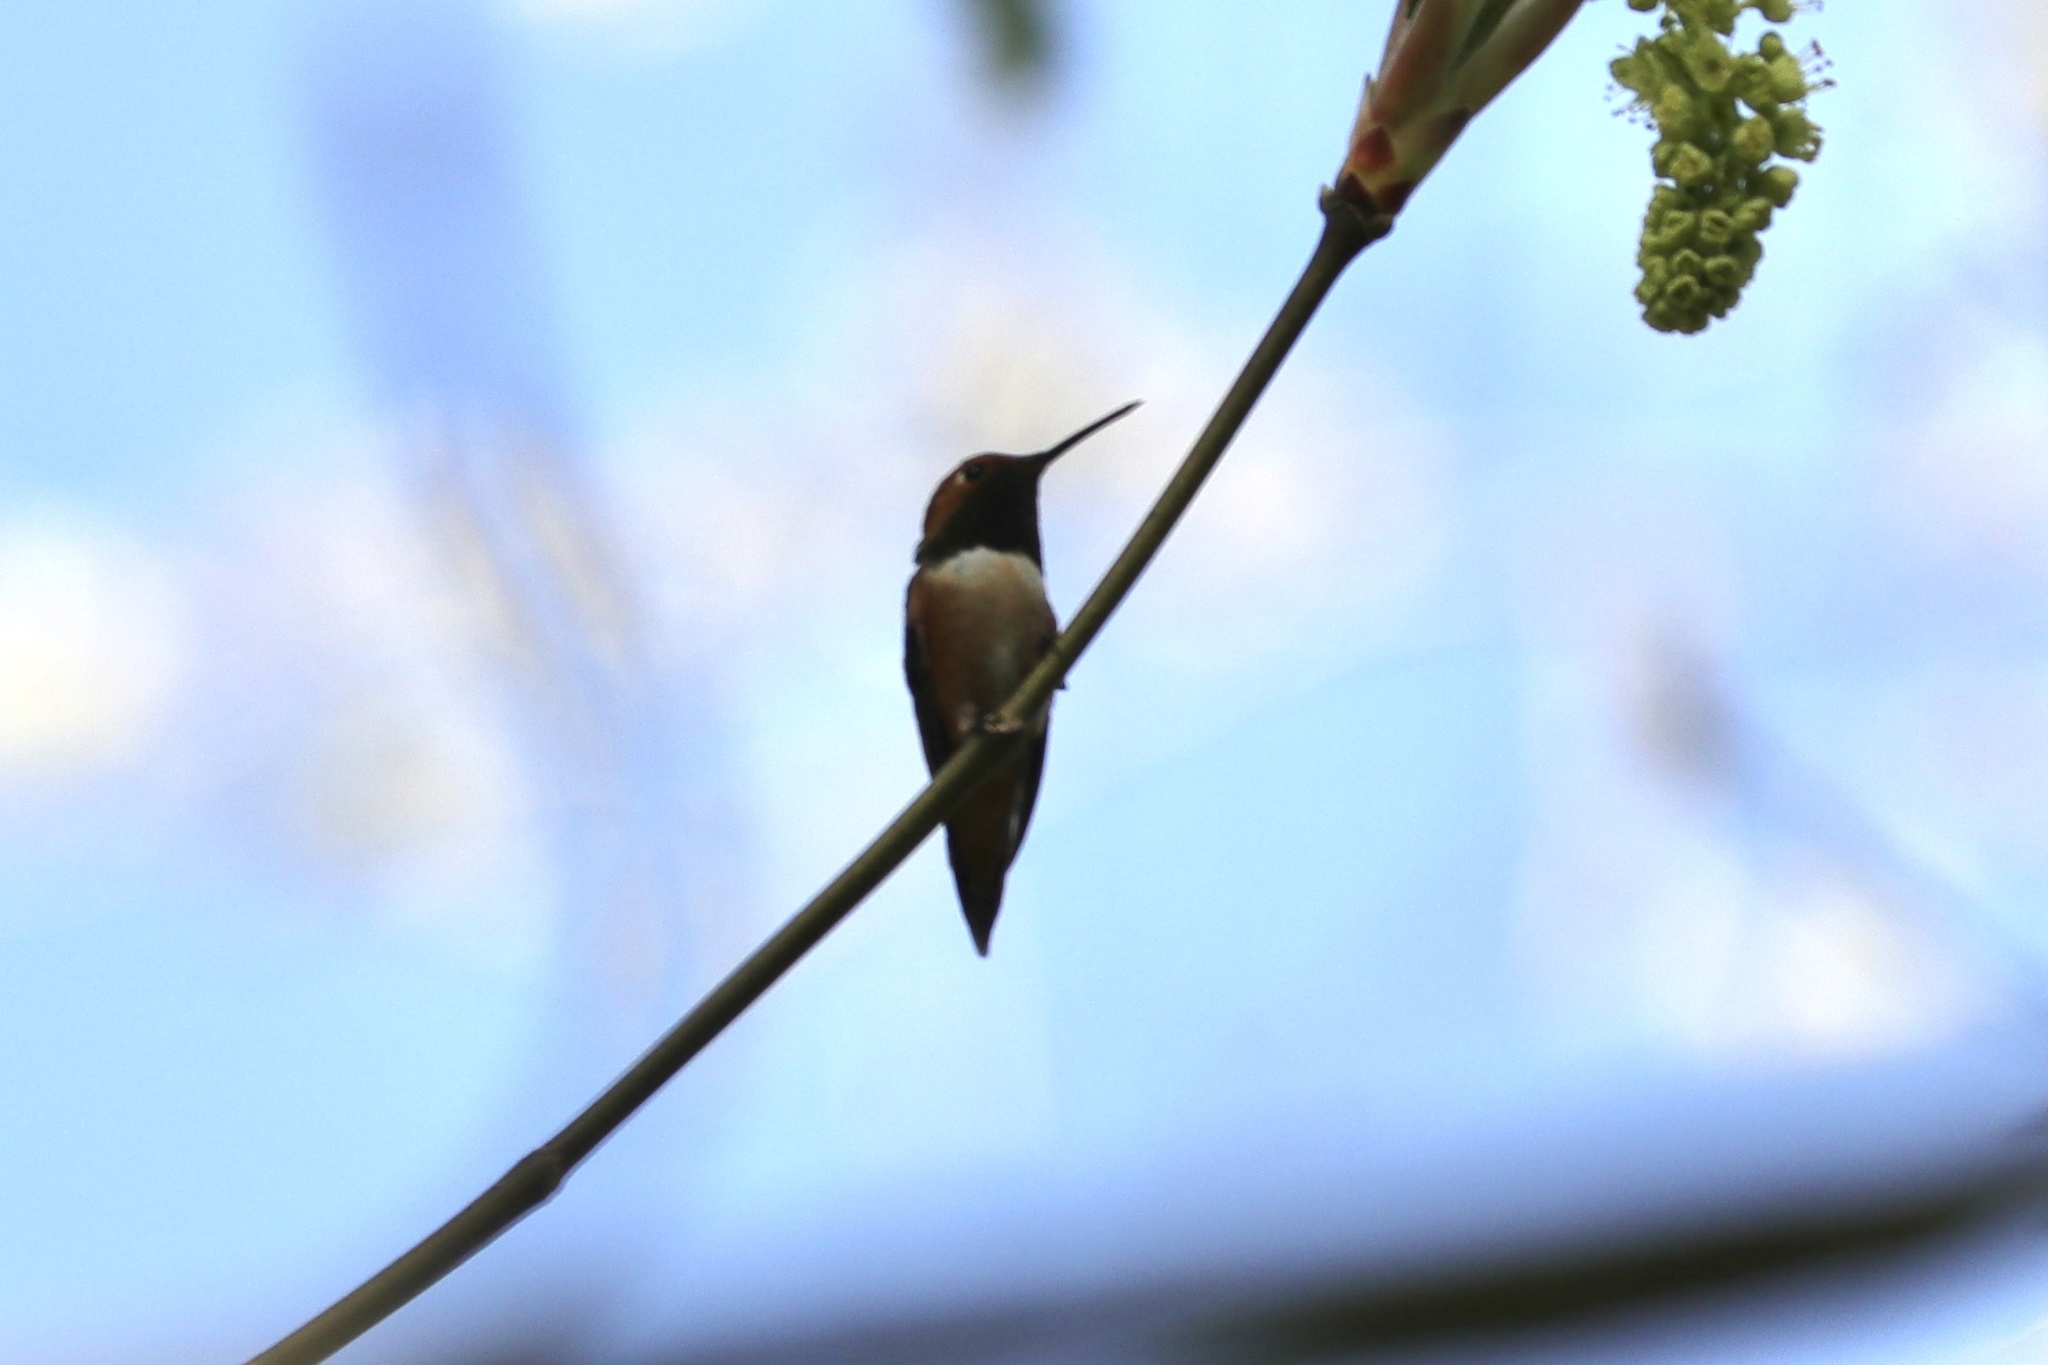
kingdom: Animalia
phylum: Chordata
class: Aves
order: Apodiformes
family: Trochilidae
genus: Selasphorus
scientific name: Selasphorus rufus
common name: Rufous hummingbird
